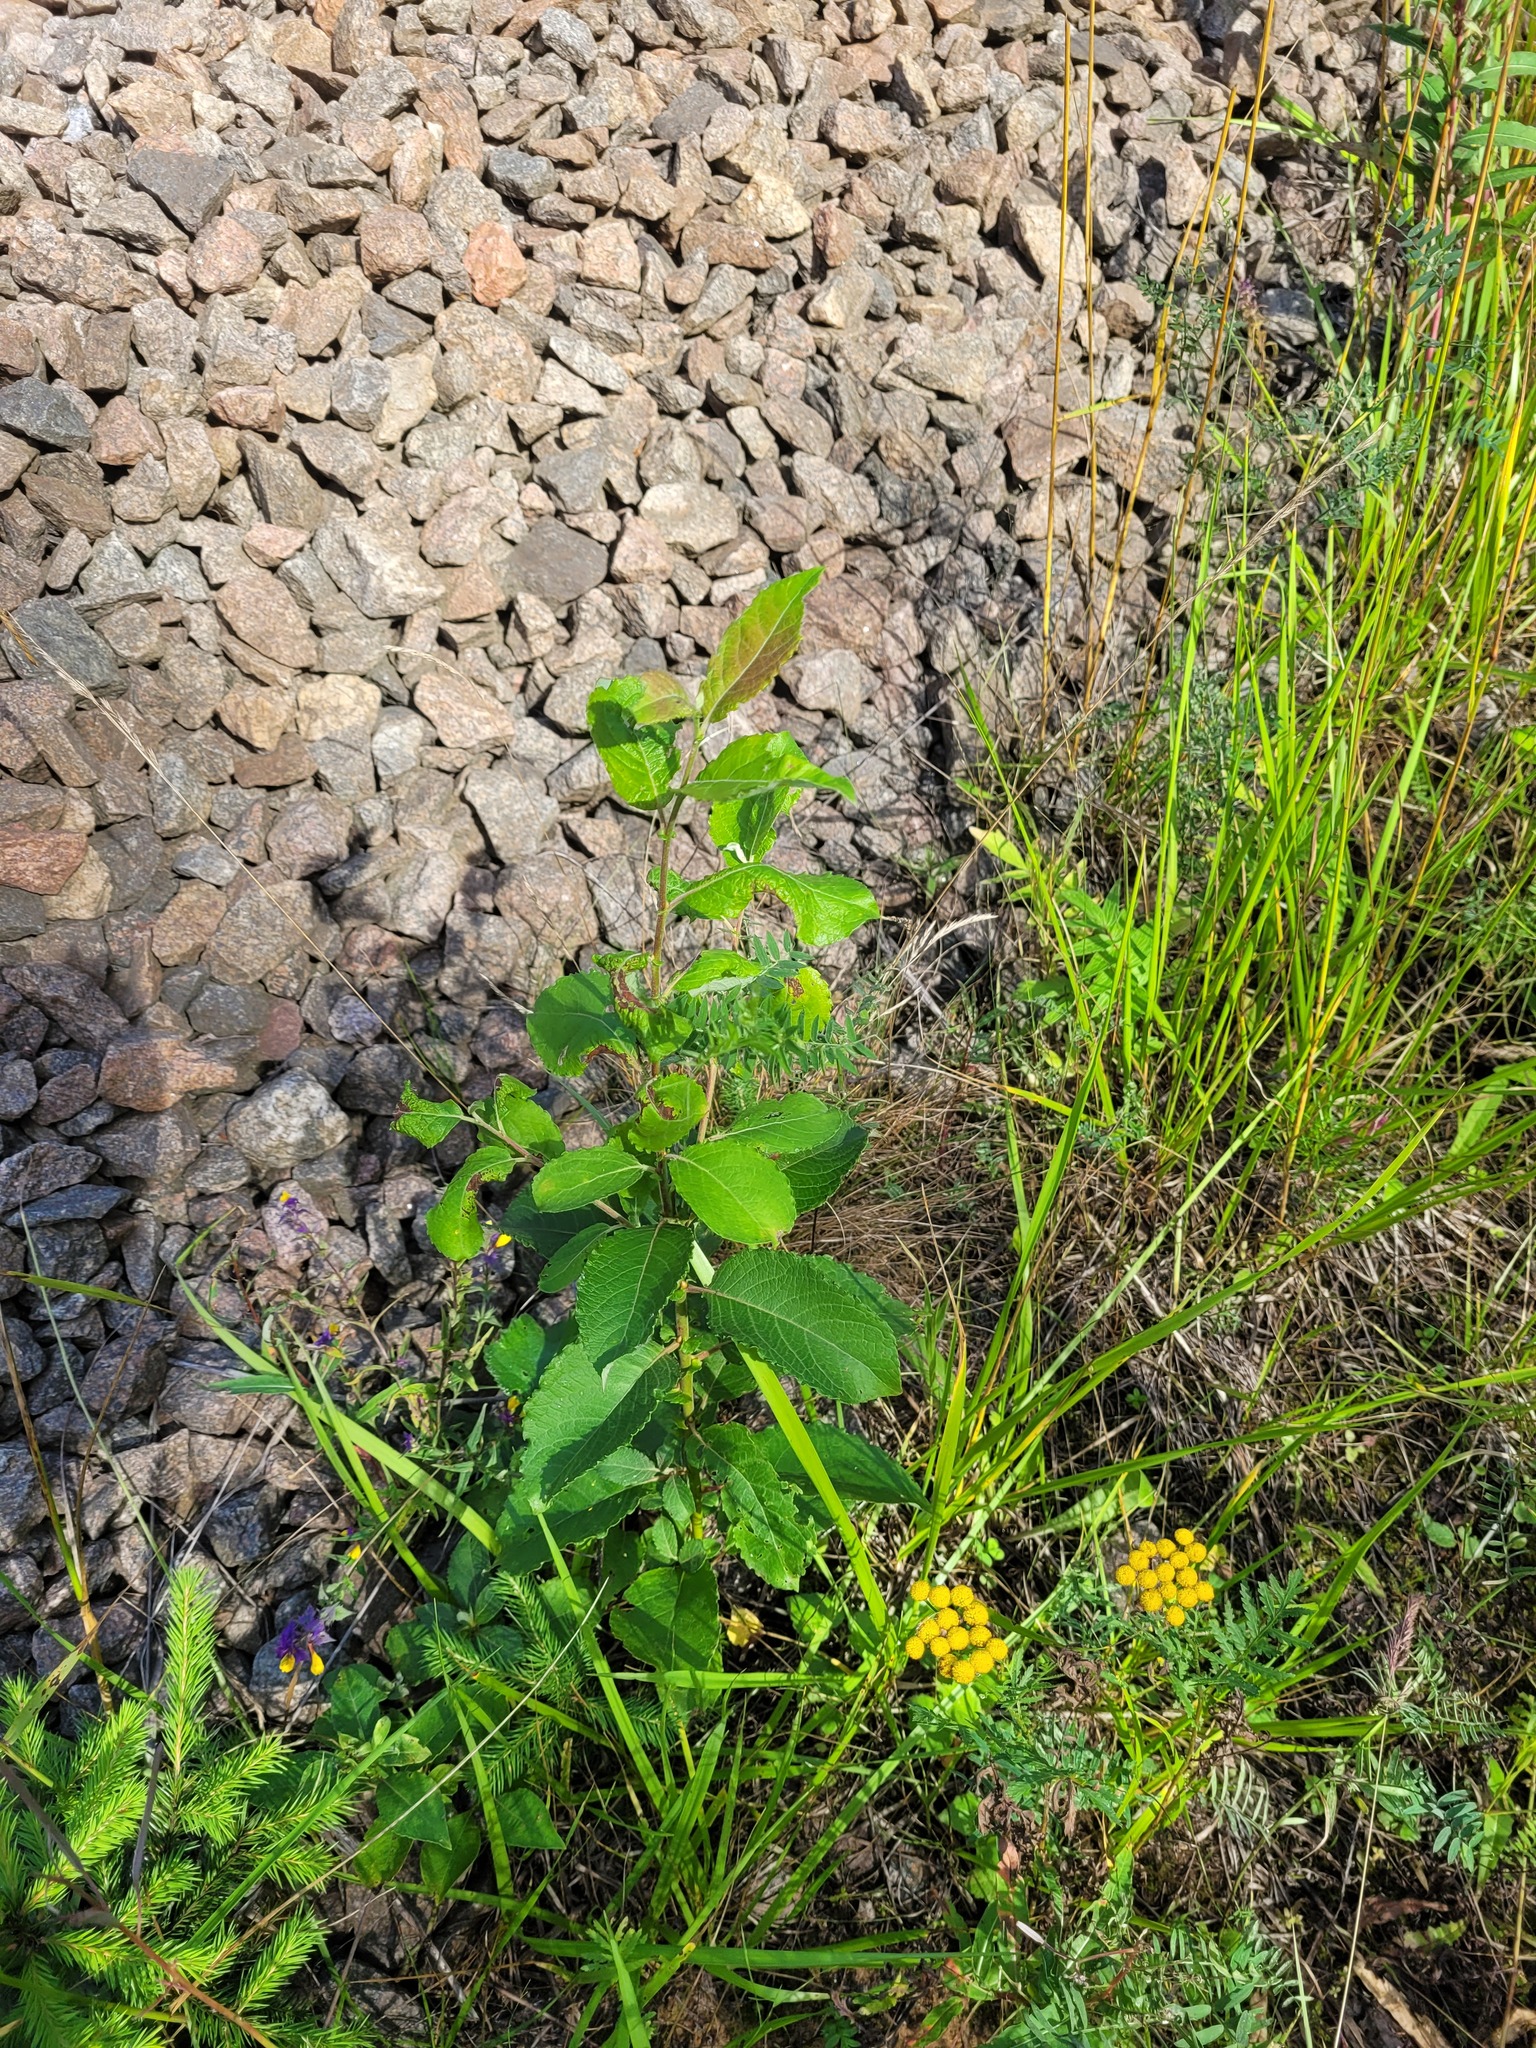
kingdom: Plantae
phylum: Tracheophyta
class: Magnoliopsida
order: Malpighiales
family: Salicaceae
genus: Salix
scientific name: Salix caprea
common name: Goat willow
